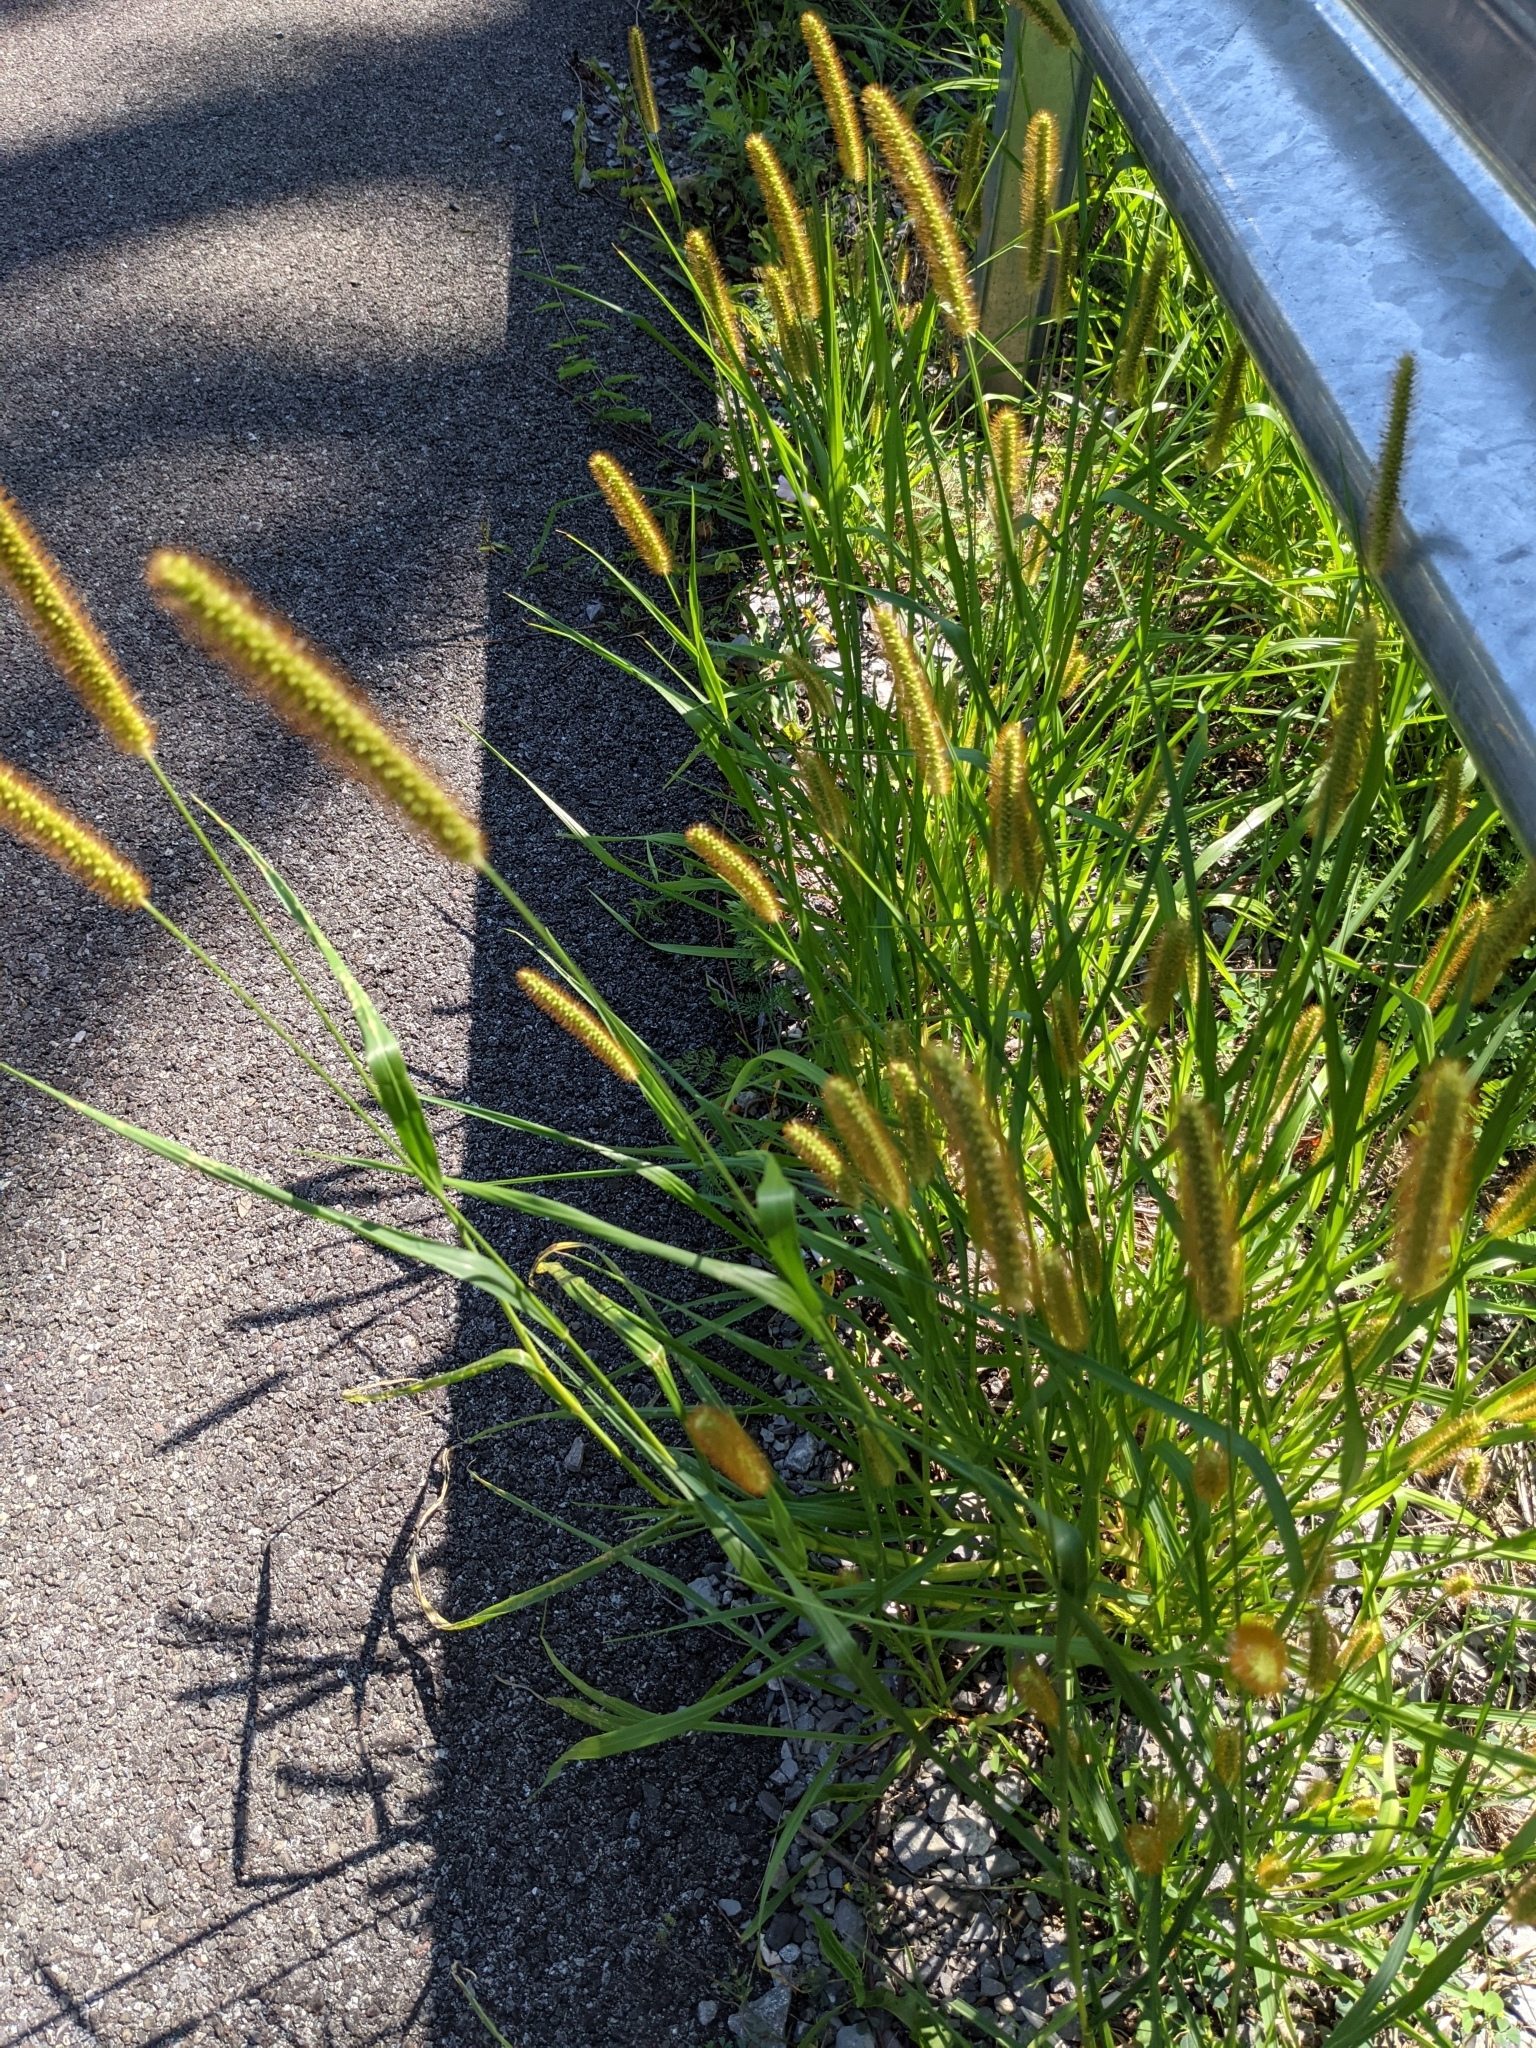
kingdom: Plantae
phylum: Tracheophyta
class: Liliopsida
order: Poales
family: Poaceae
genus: Setaria
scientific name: Setaria pumila
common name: Yellow bristle-grass
